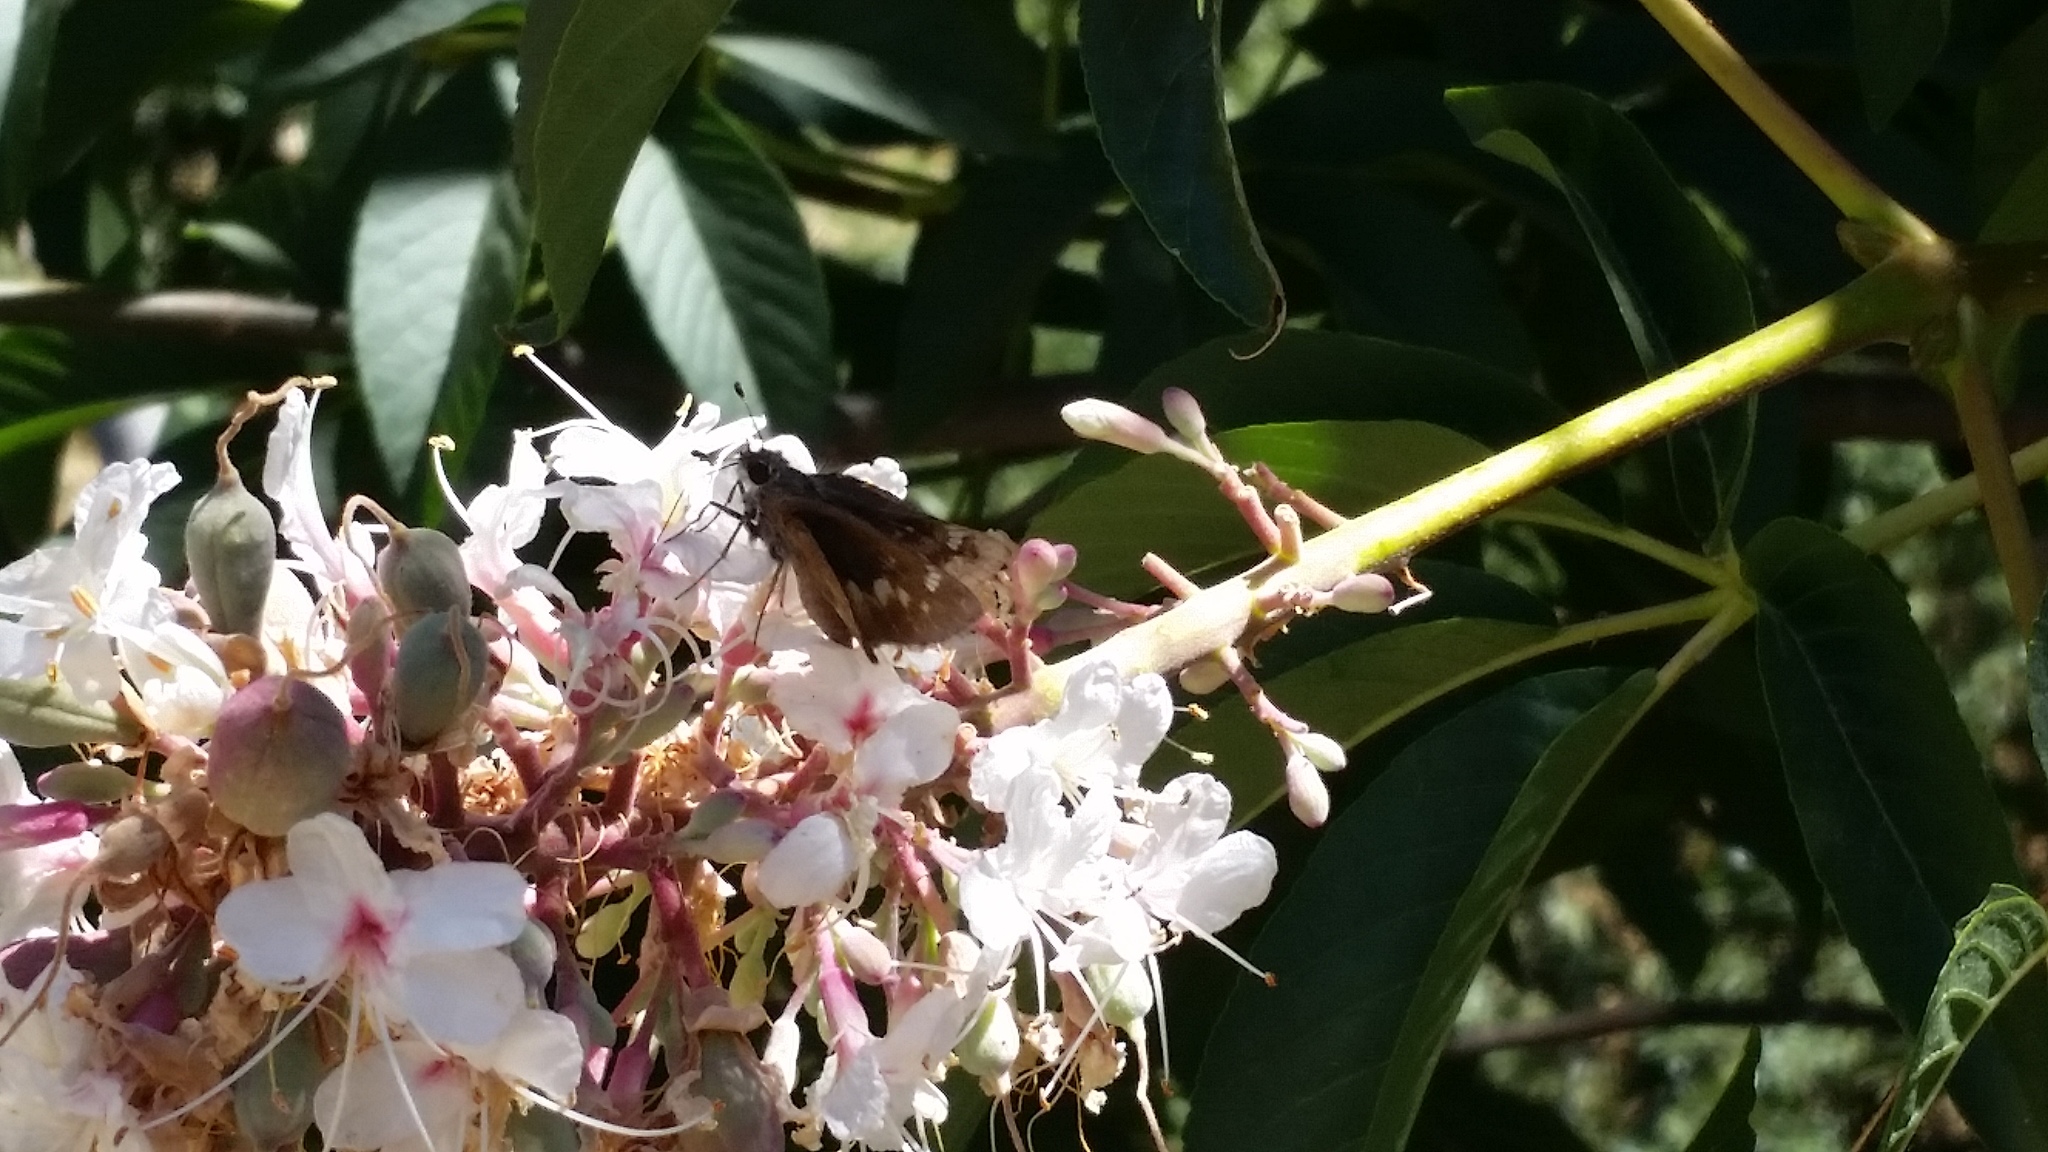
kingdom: Animalia
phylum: Arthropoda
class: Insecta
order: Lepidoptera
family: Hesperiidae
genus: Lon
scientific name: Lon melane
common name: Umber skipper
